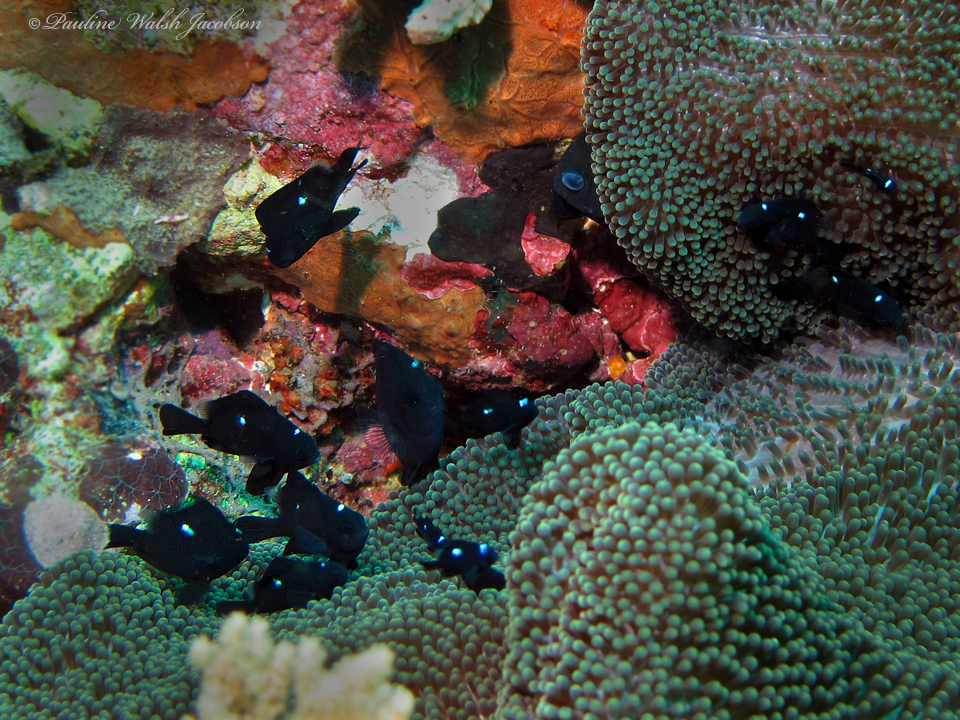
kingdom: Animalia
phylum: Chordata
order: Perciformes
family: Pomacentridae
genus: Dascyllus
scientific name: Dascyllus trimaculatus
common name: Threespot dascyllus
